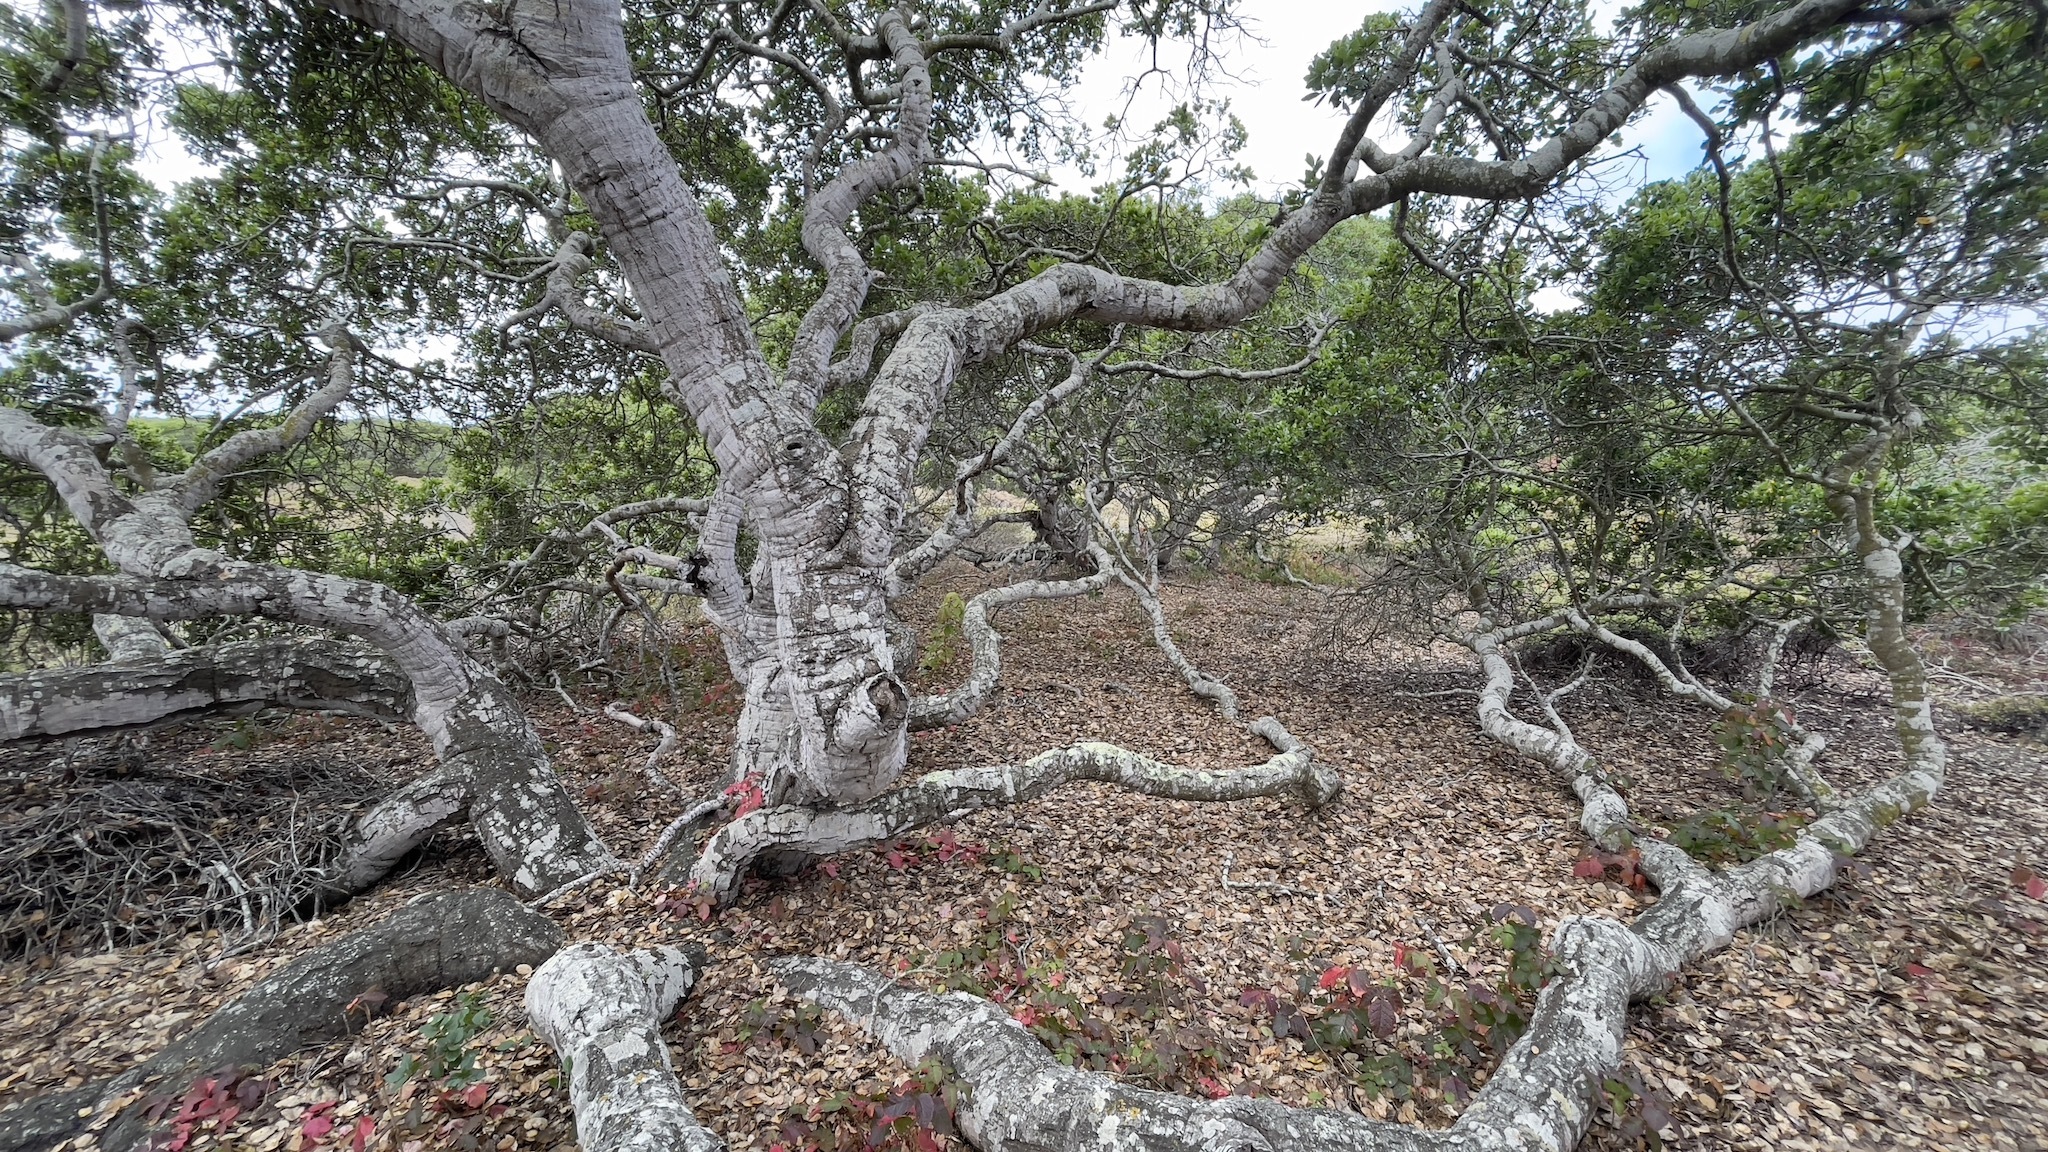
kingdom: Plantae
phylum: Tracheophyta
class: Magnoliopsida
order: Fagales
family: Fagaceae
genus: Quercus
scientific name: Quercus agrifolia
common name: California live oak
